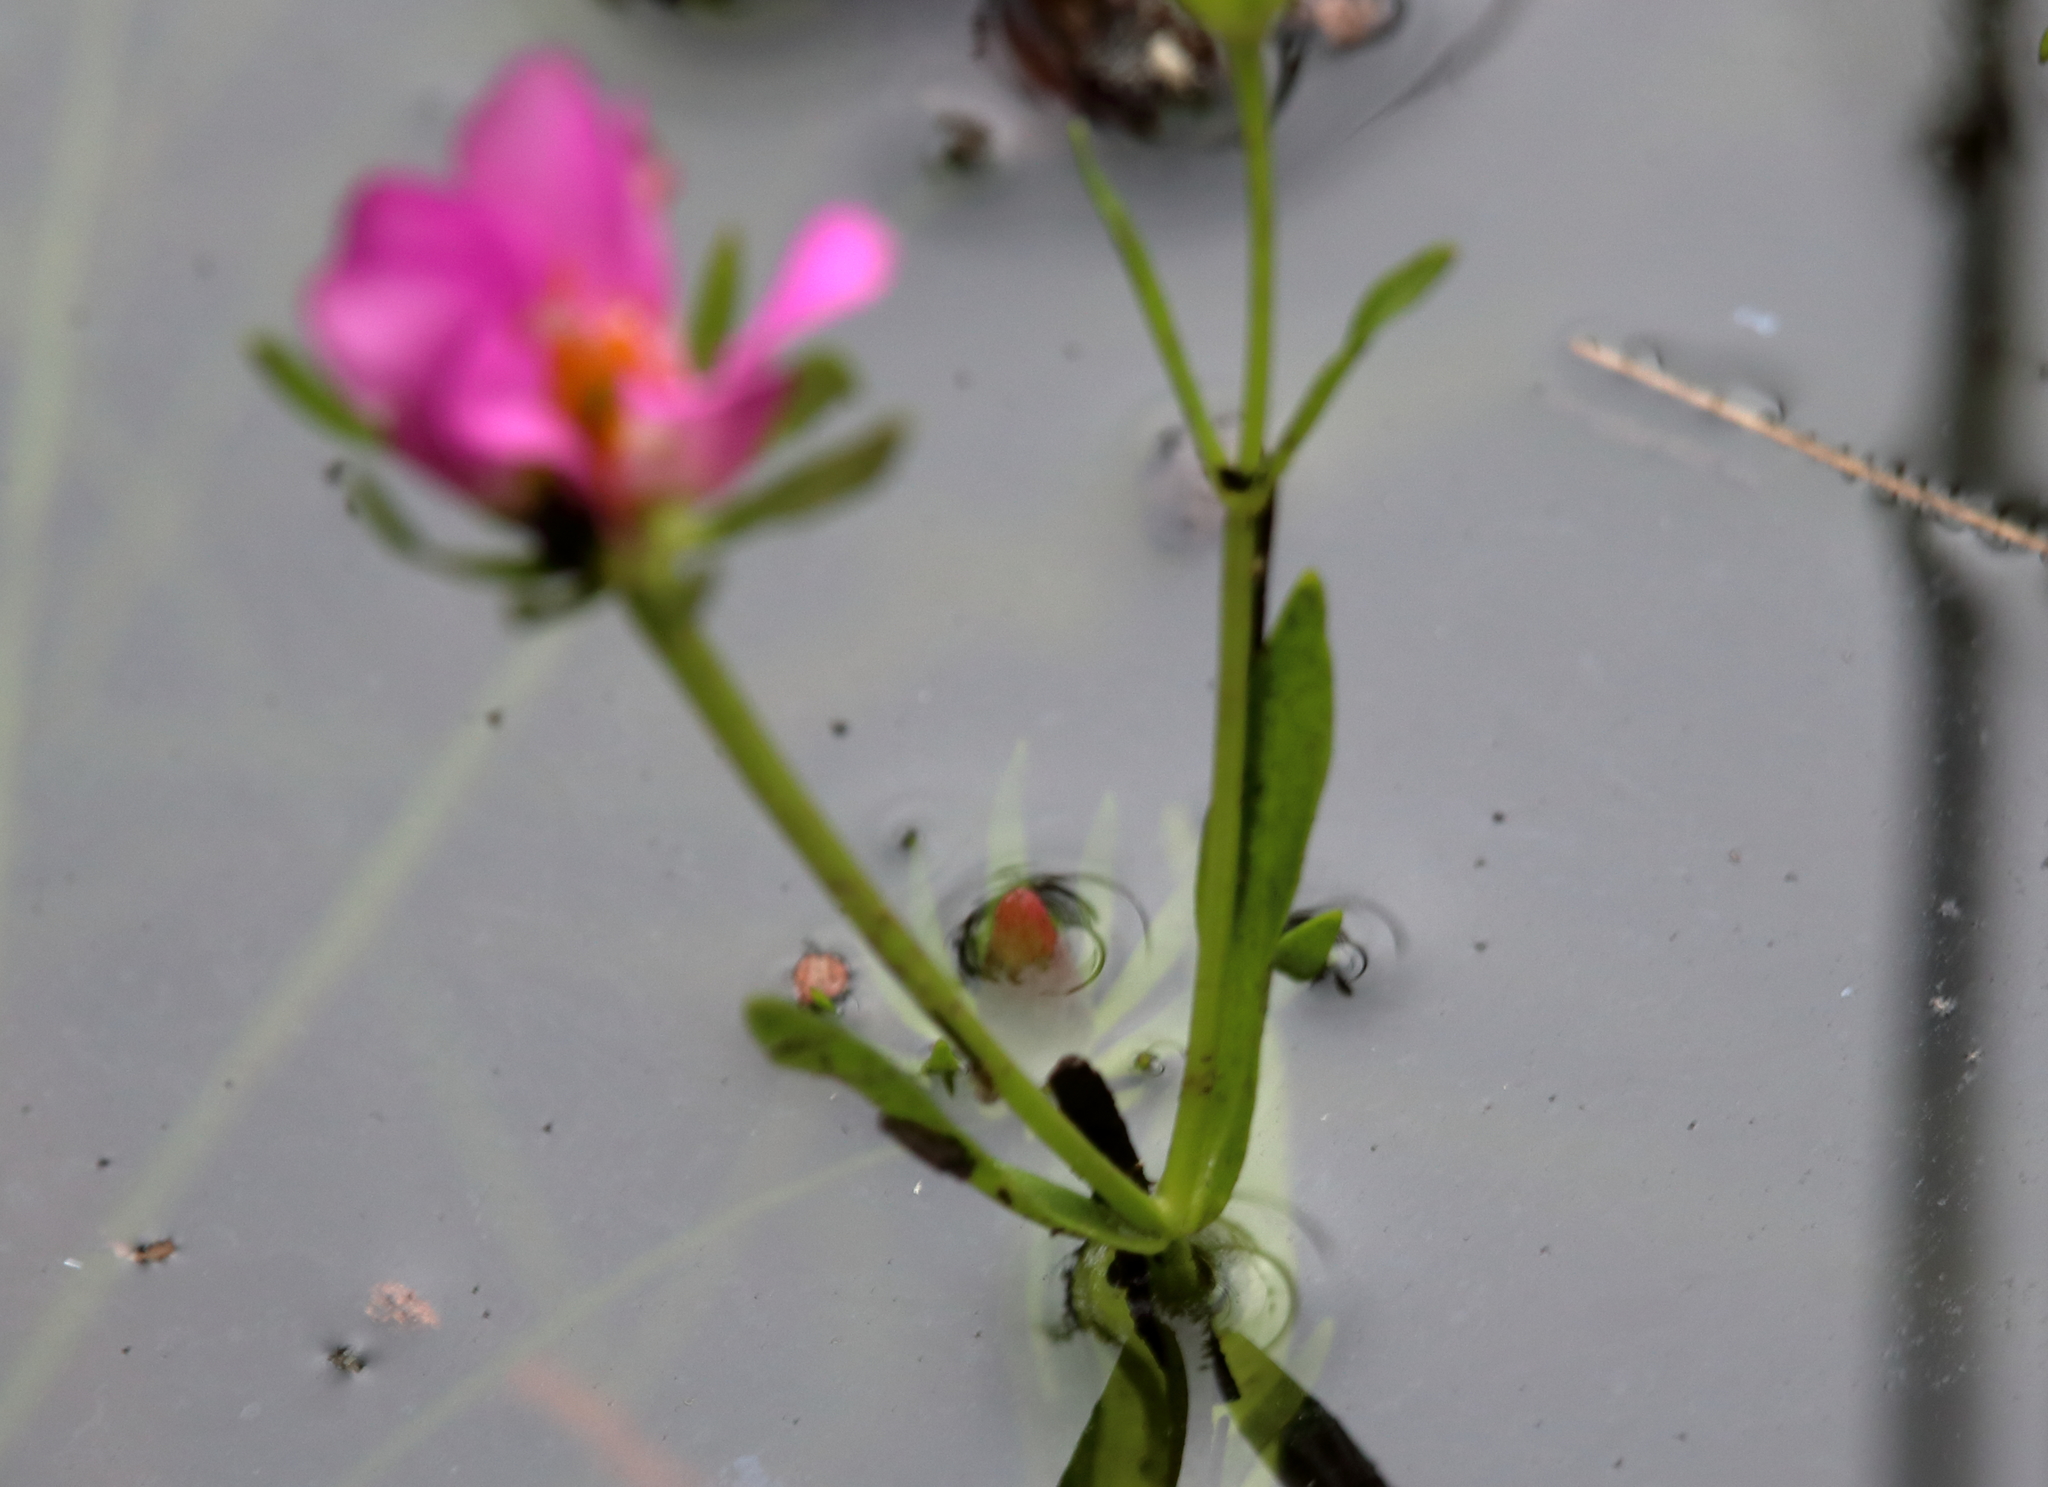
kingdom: Plantae
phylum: Tracheophyta
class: Magnoliopsida
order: Gentianales
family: Gentianaceae
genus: Sabatia
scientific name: Sabatia foliosa
